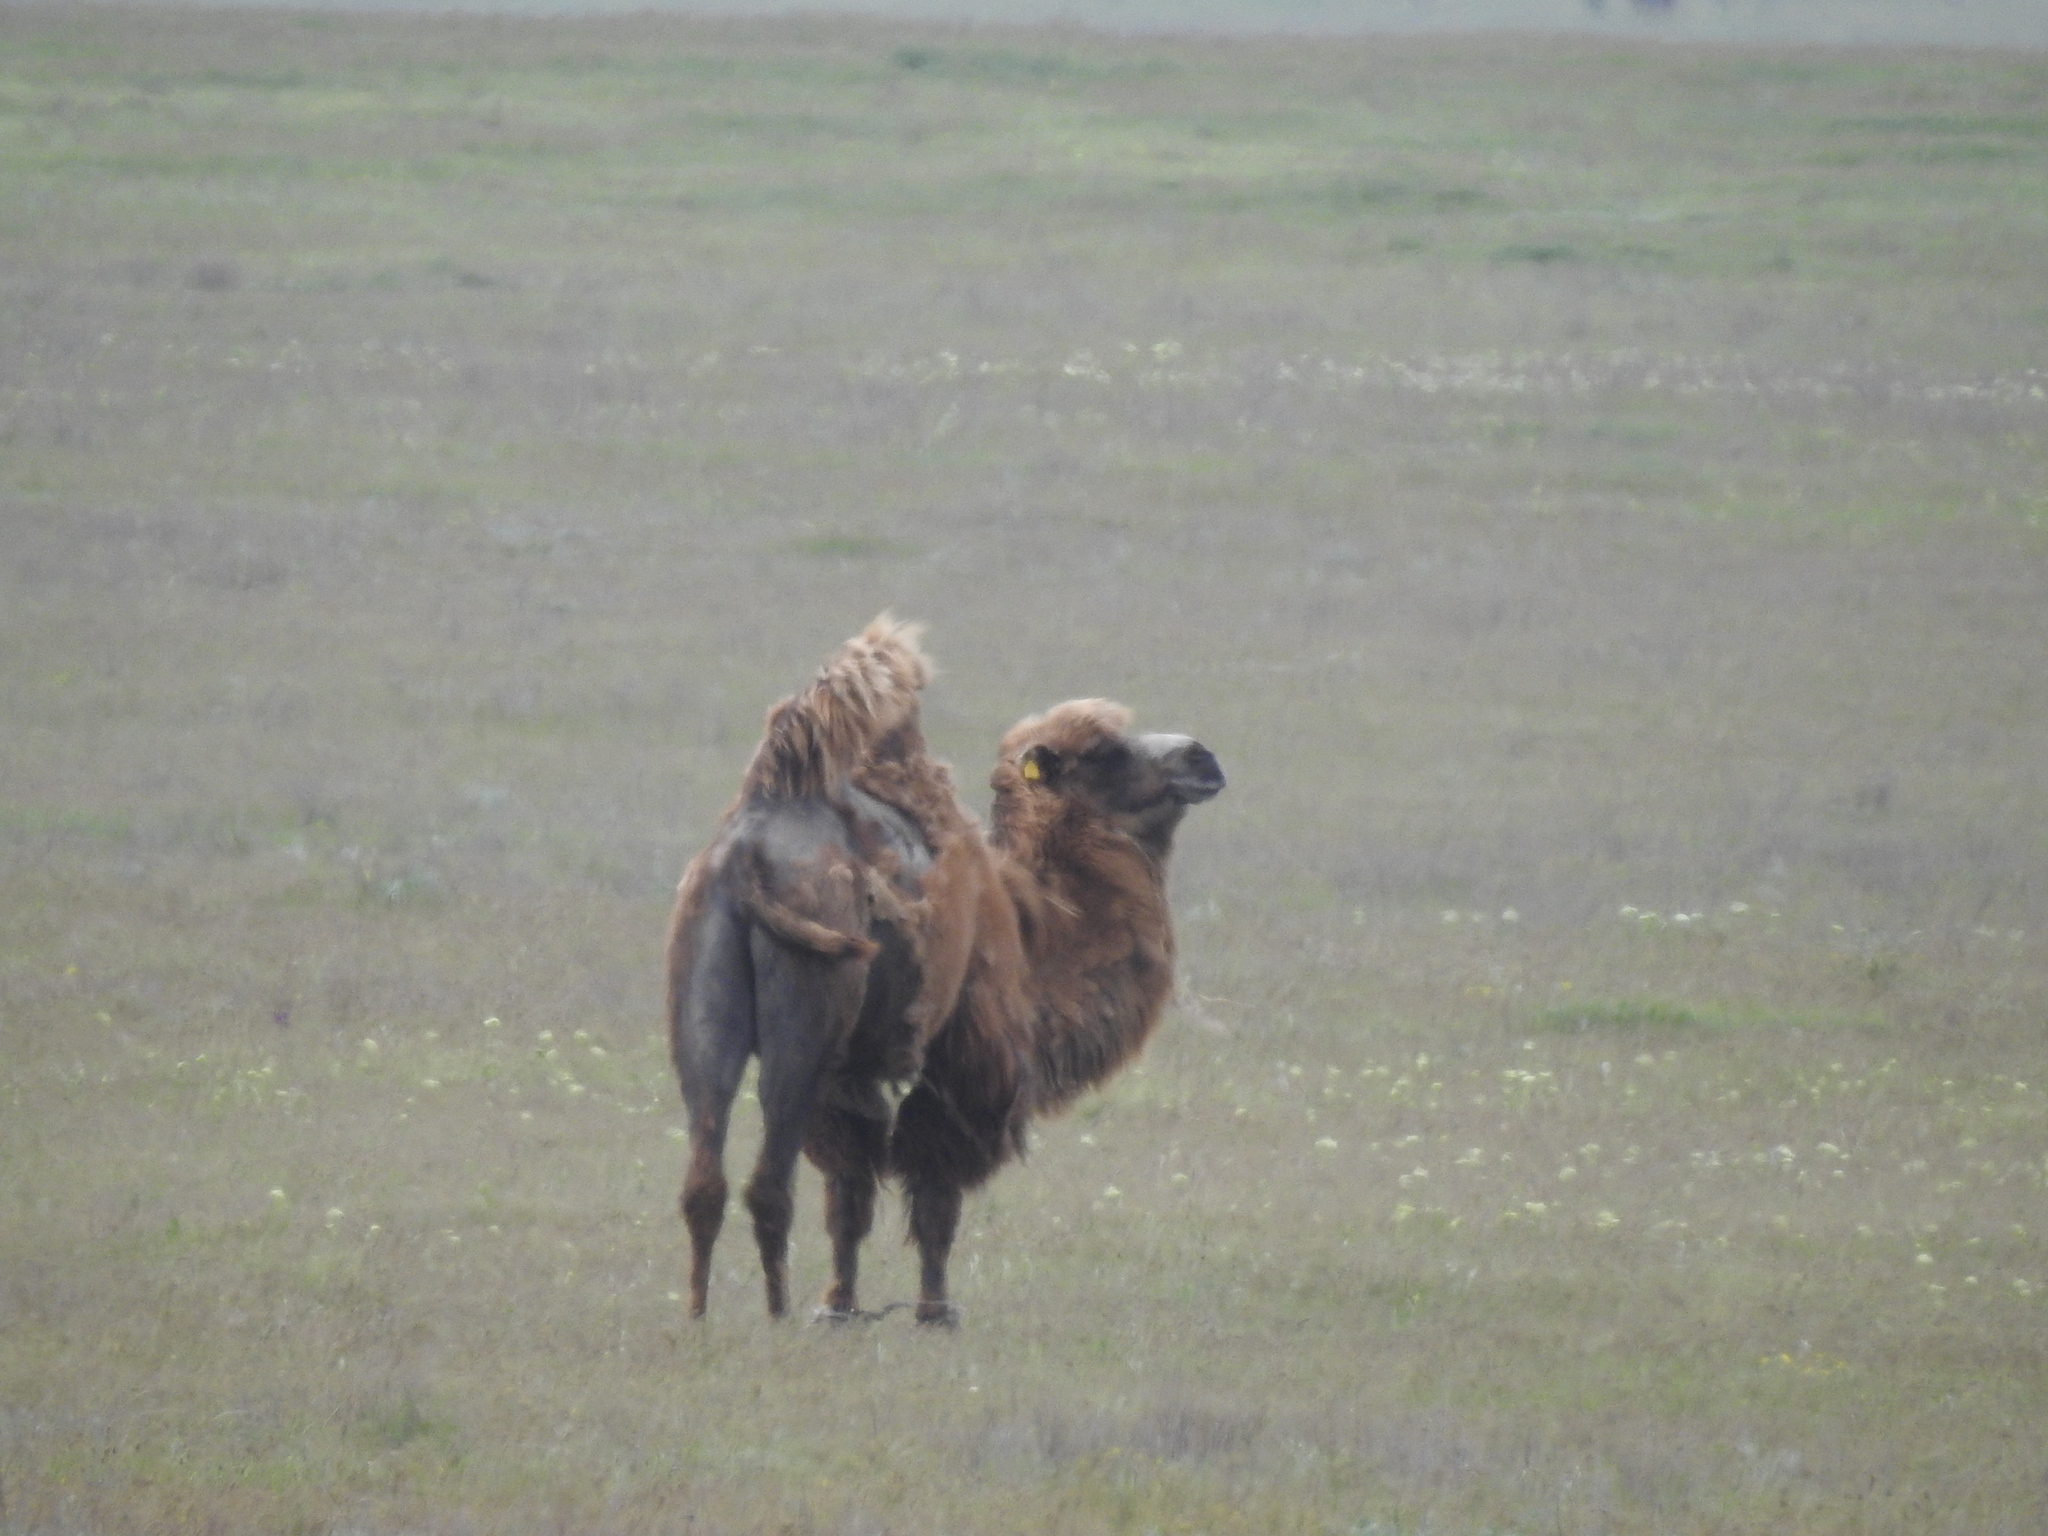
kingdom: Animalia
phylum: Chordata
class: Mammalia
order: Artiodactyla
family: Camelidae
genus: Camelus
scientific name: Camelus bactrianus
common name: Bactrian camel
